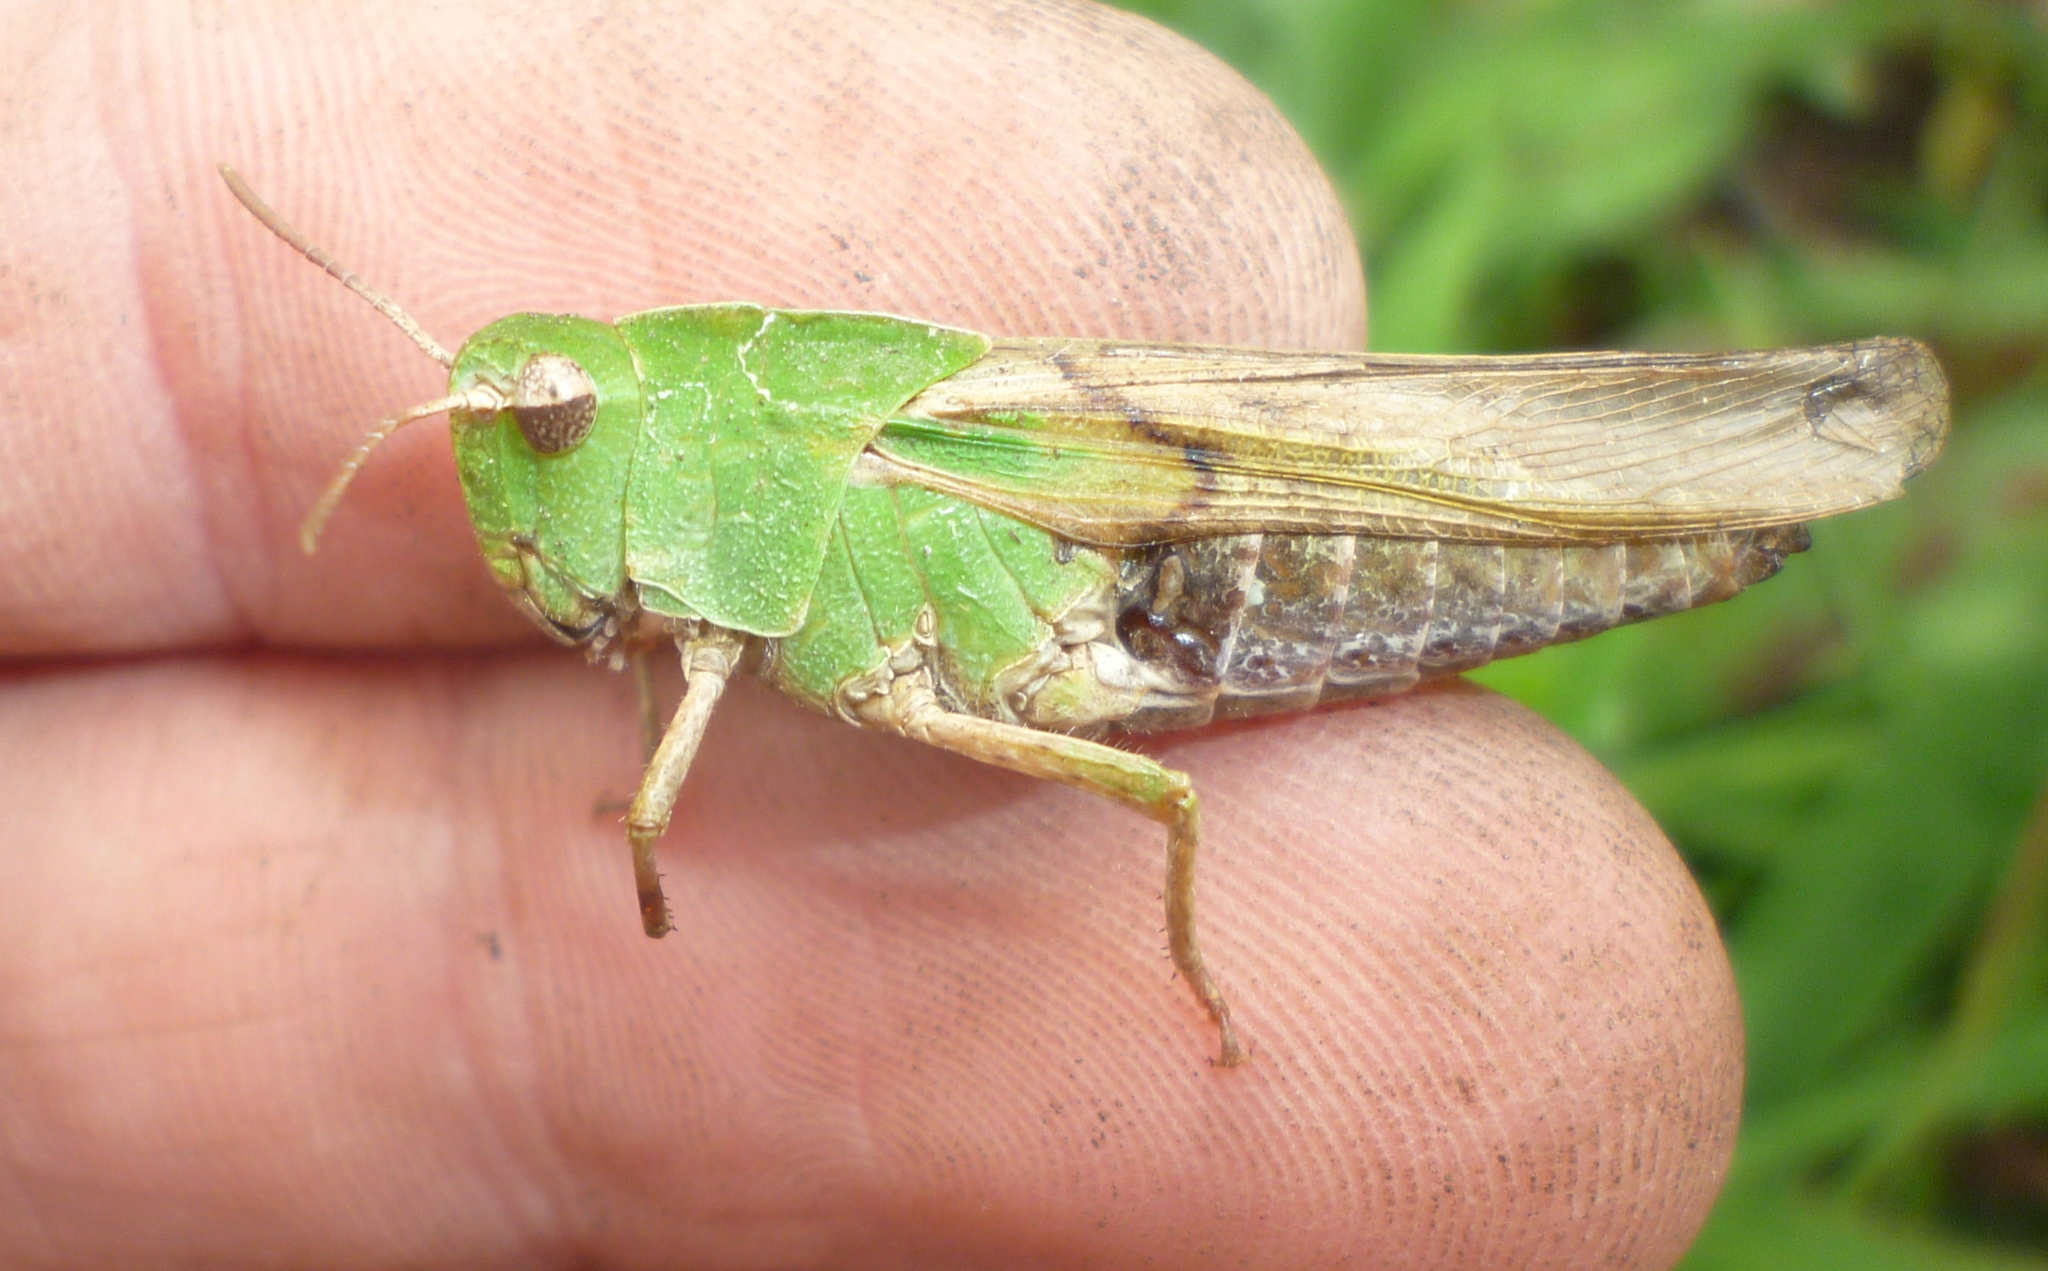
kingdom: Animalia
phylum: Arthropoda
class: Insecta
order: Orthoptera
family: Acrididae
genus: Chortophaga
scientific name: Chortophaga viridifasciata
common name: Green-striped grasshopper
